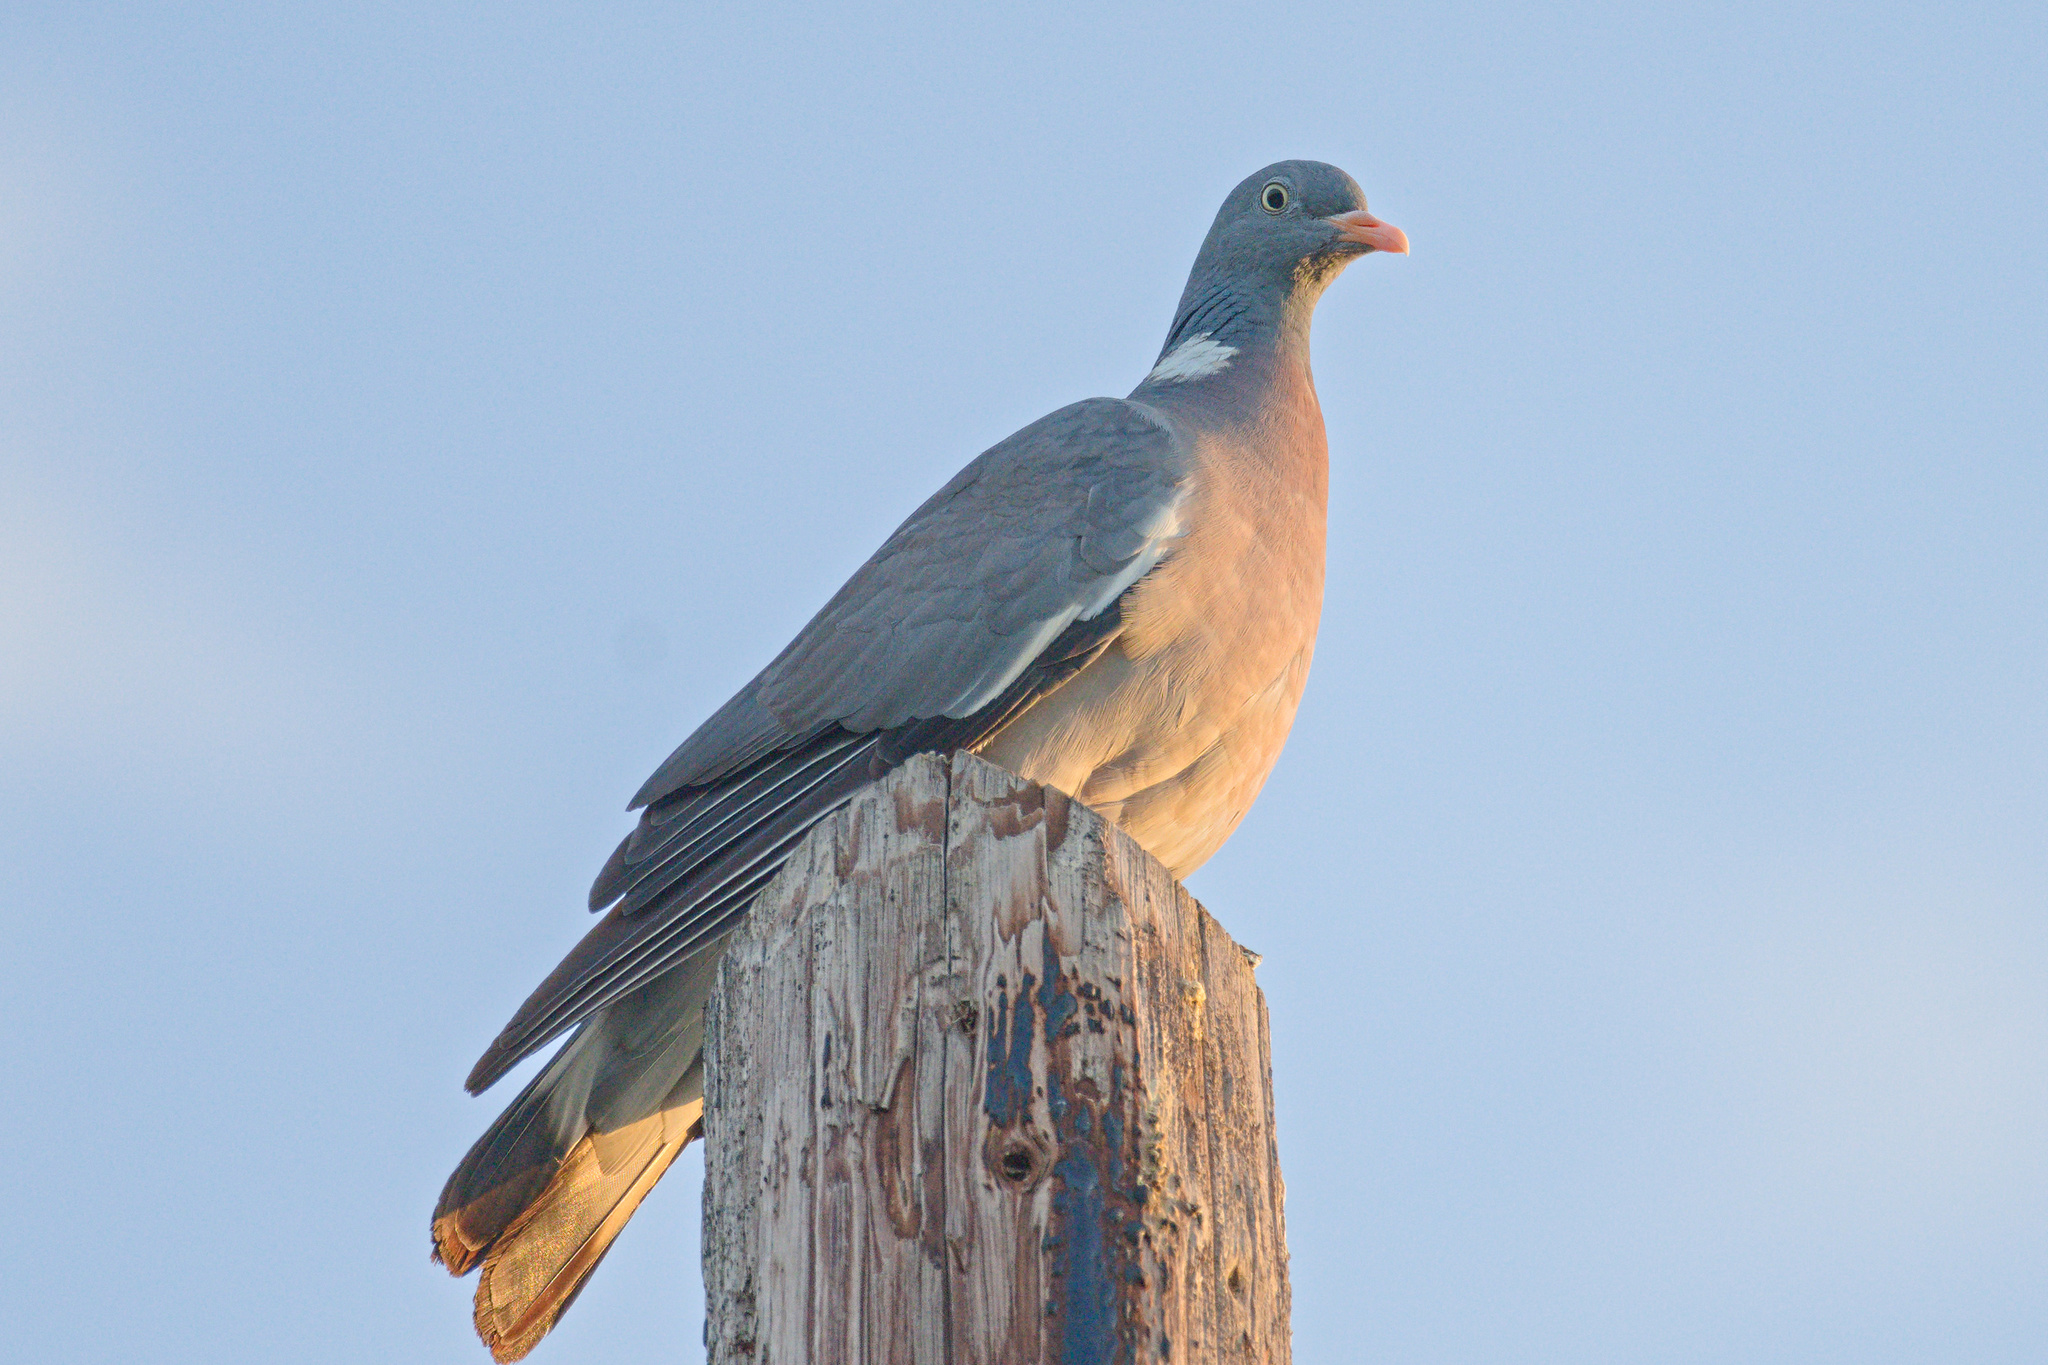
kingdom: Animalia
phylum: Chordata
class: Aves
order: Columbiformes
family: Columbidae
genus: Columba
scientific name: Columba palumbus
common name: Common wood pigeon
